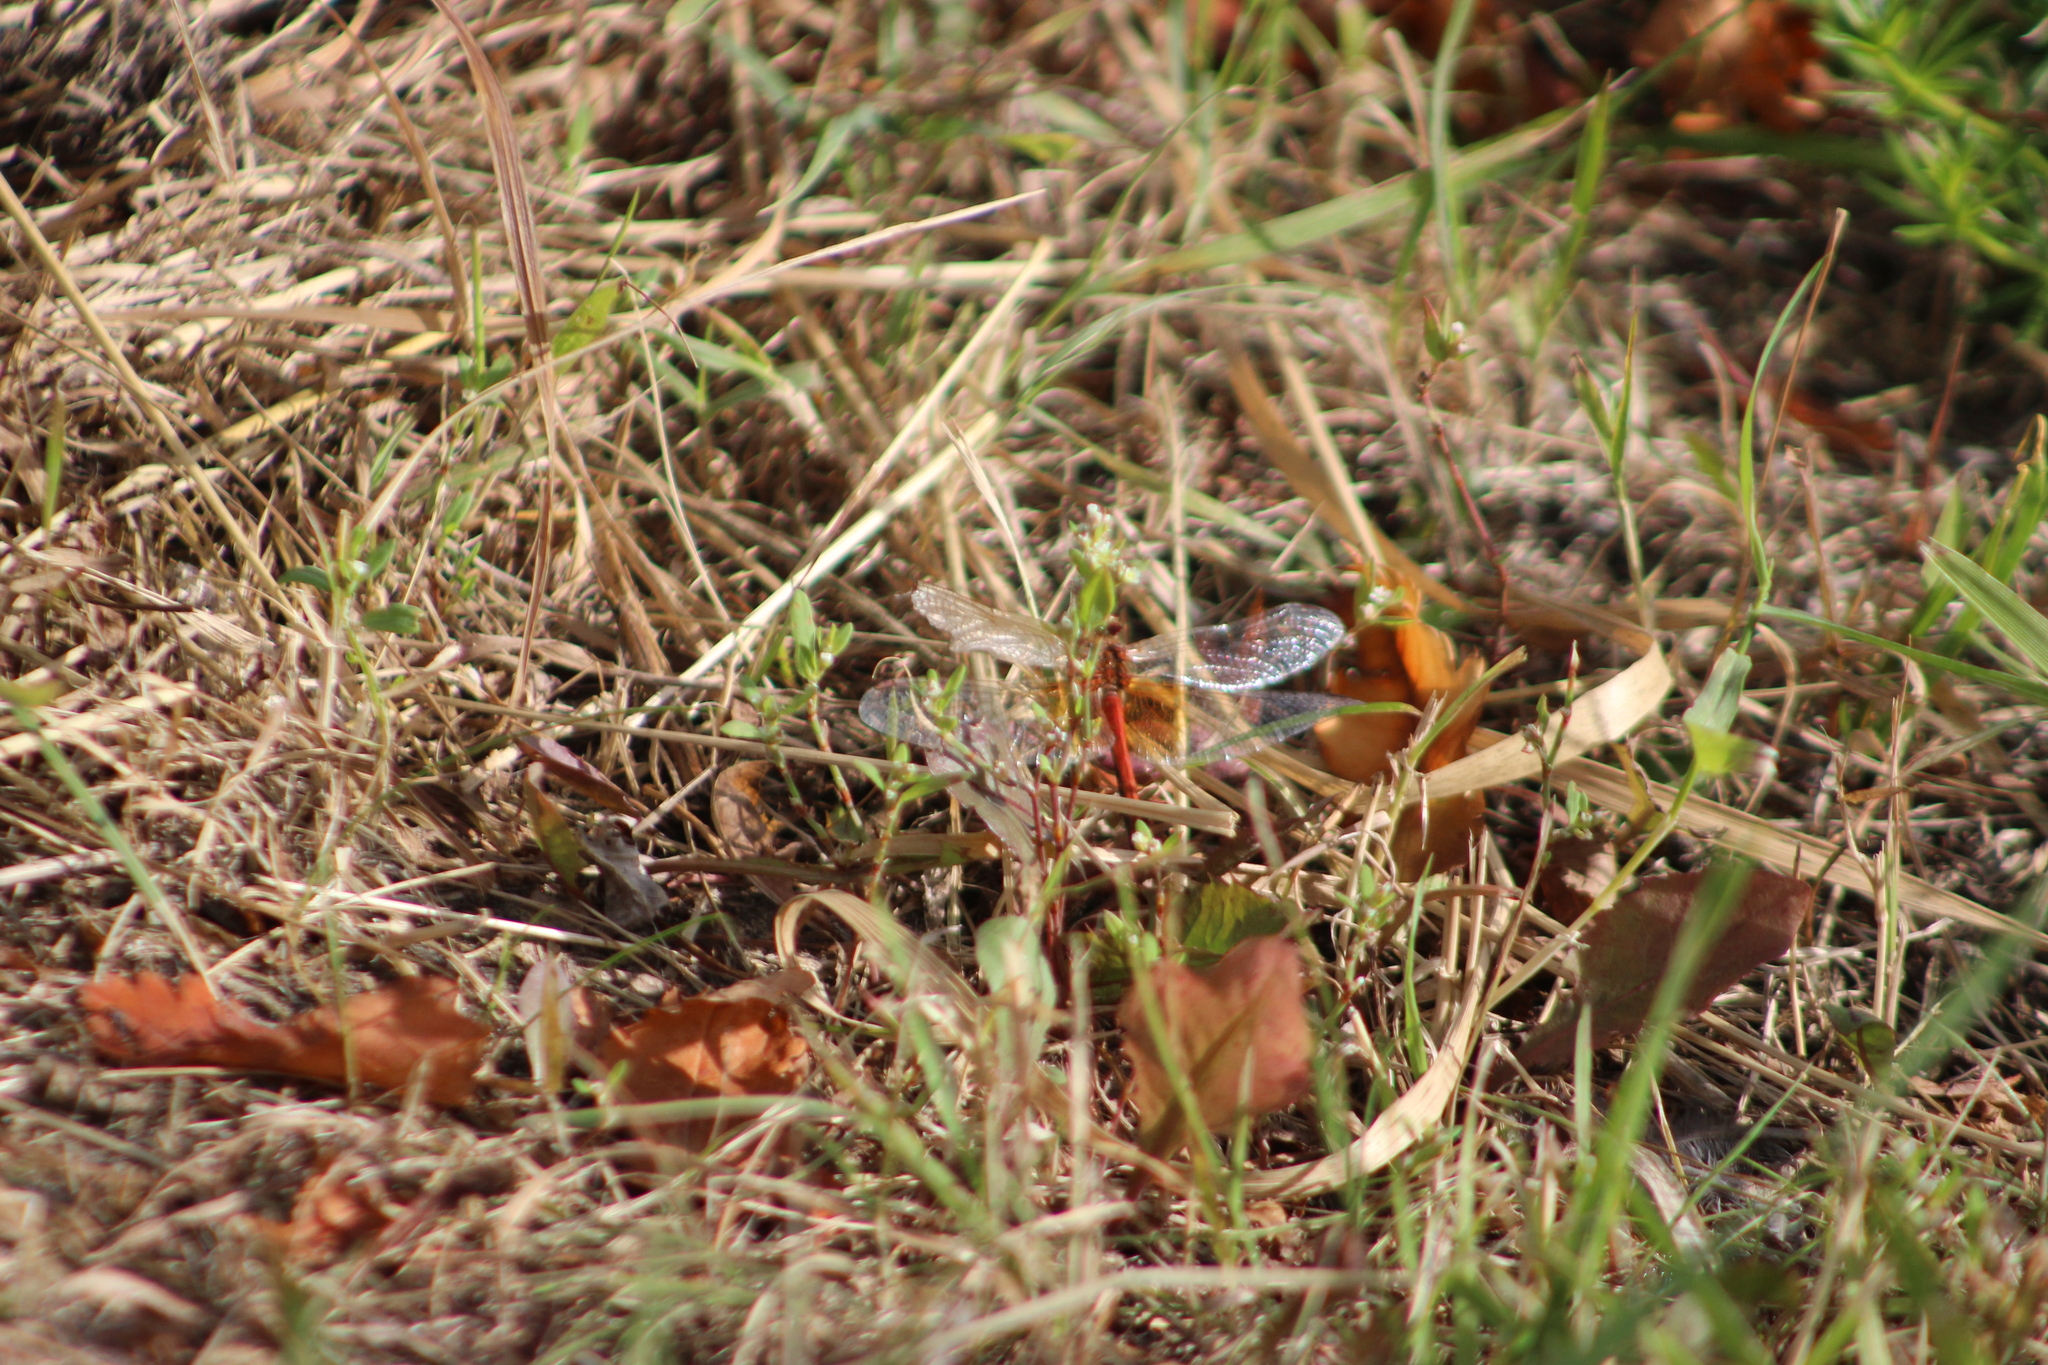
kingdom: Animalia
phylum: Arthropoda
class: Insecta
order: Odonata
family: Libellulidae
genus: Sympetrum
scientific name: Sympetrum flaveolum
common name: Yellow-winged darter
